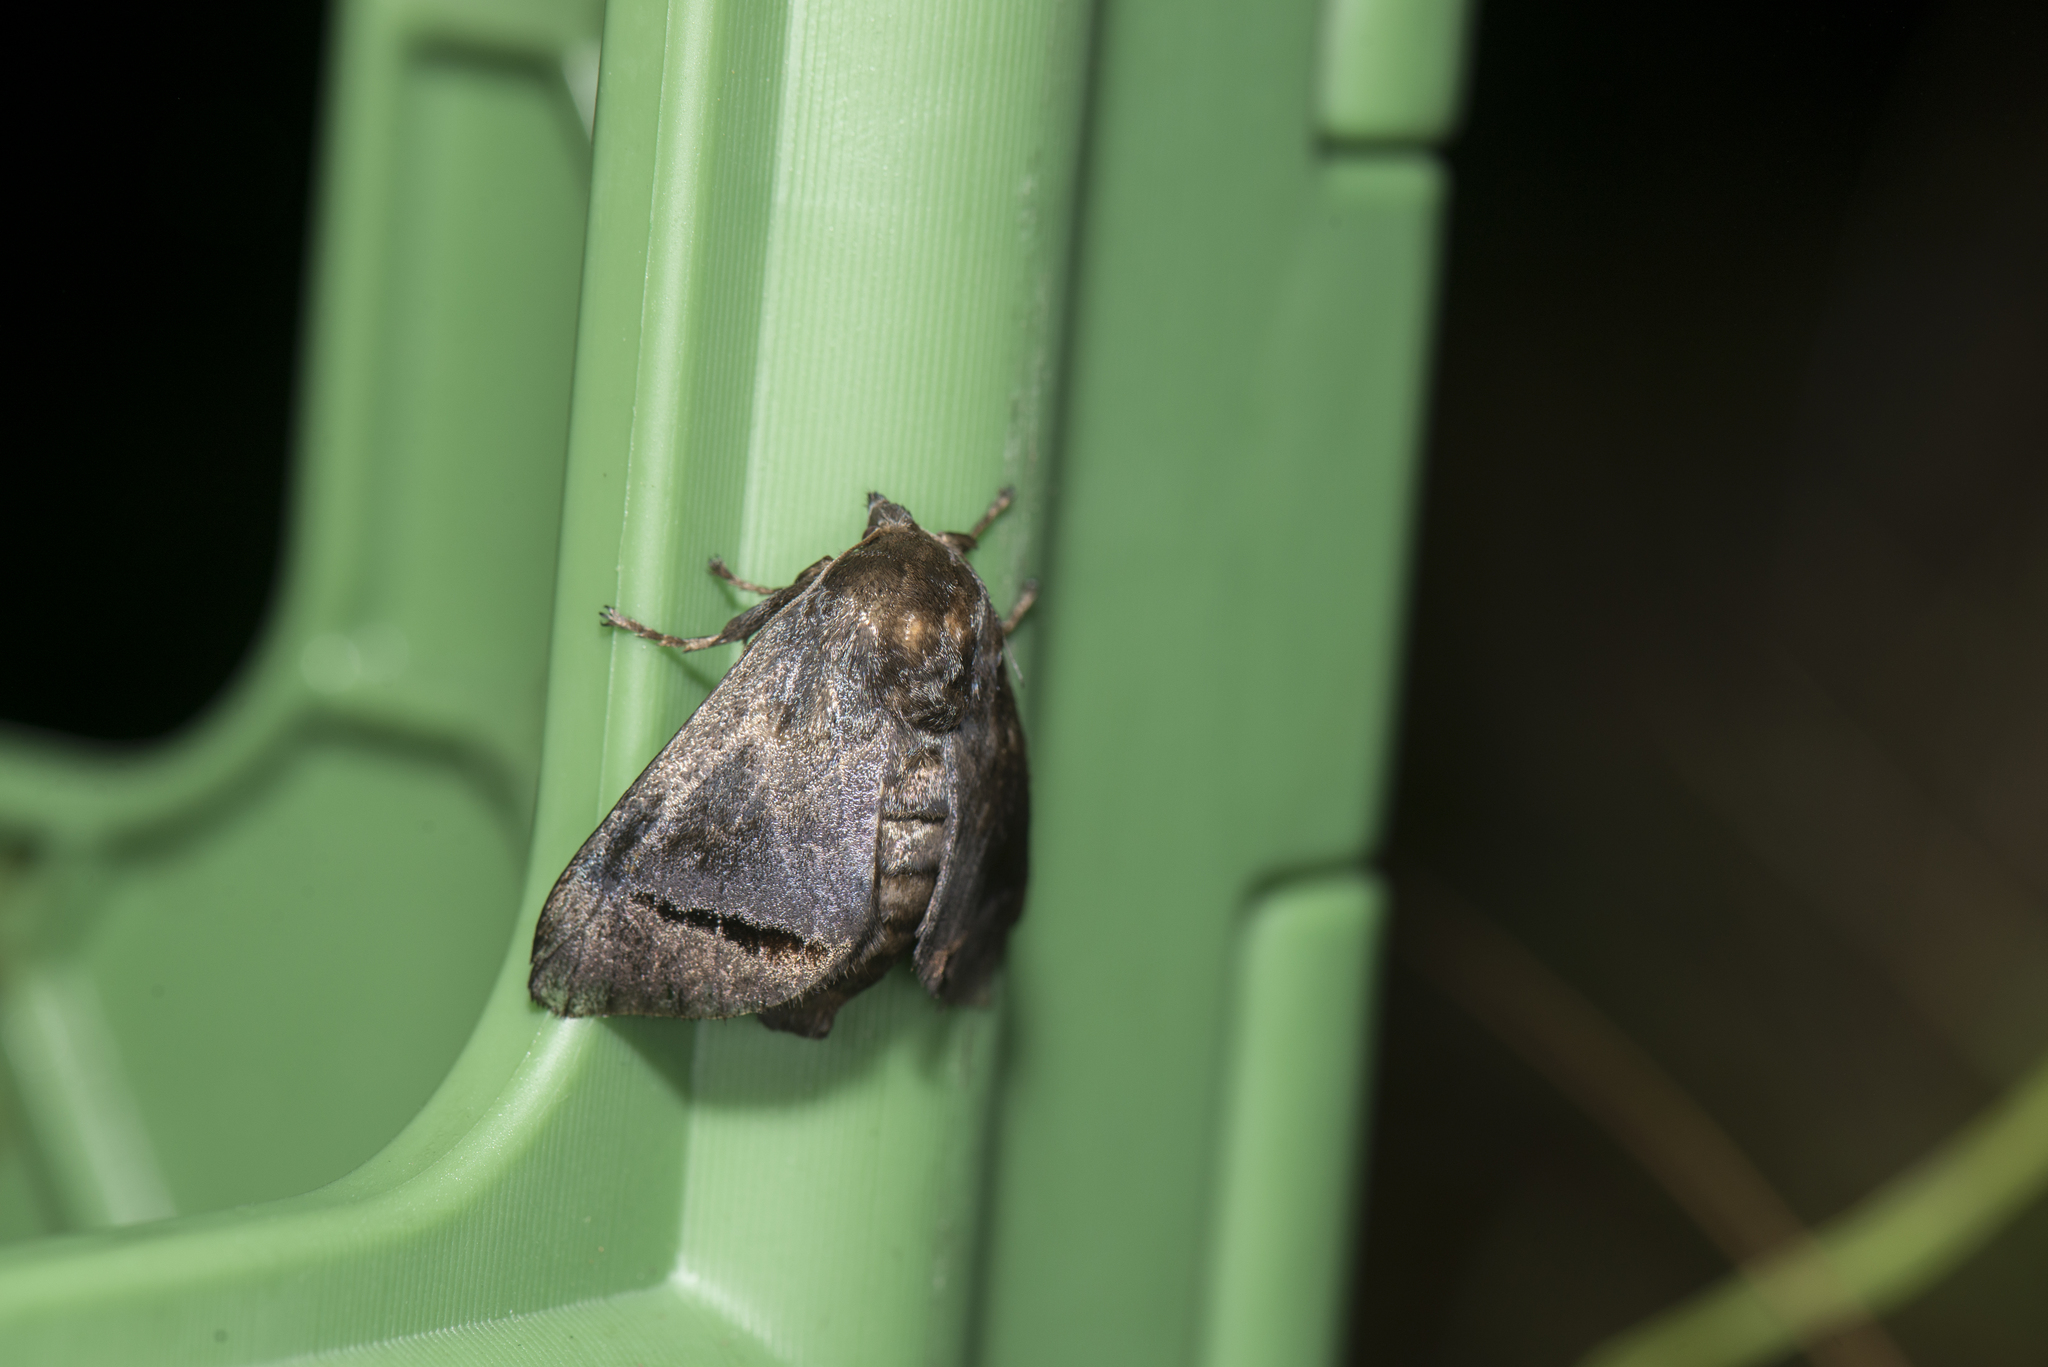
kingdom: Animalia
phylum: Arthropoda
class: Insecta
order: Lepidoptera
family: Limacodidae
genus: Setora
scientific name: Setora baibarana
